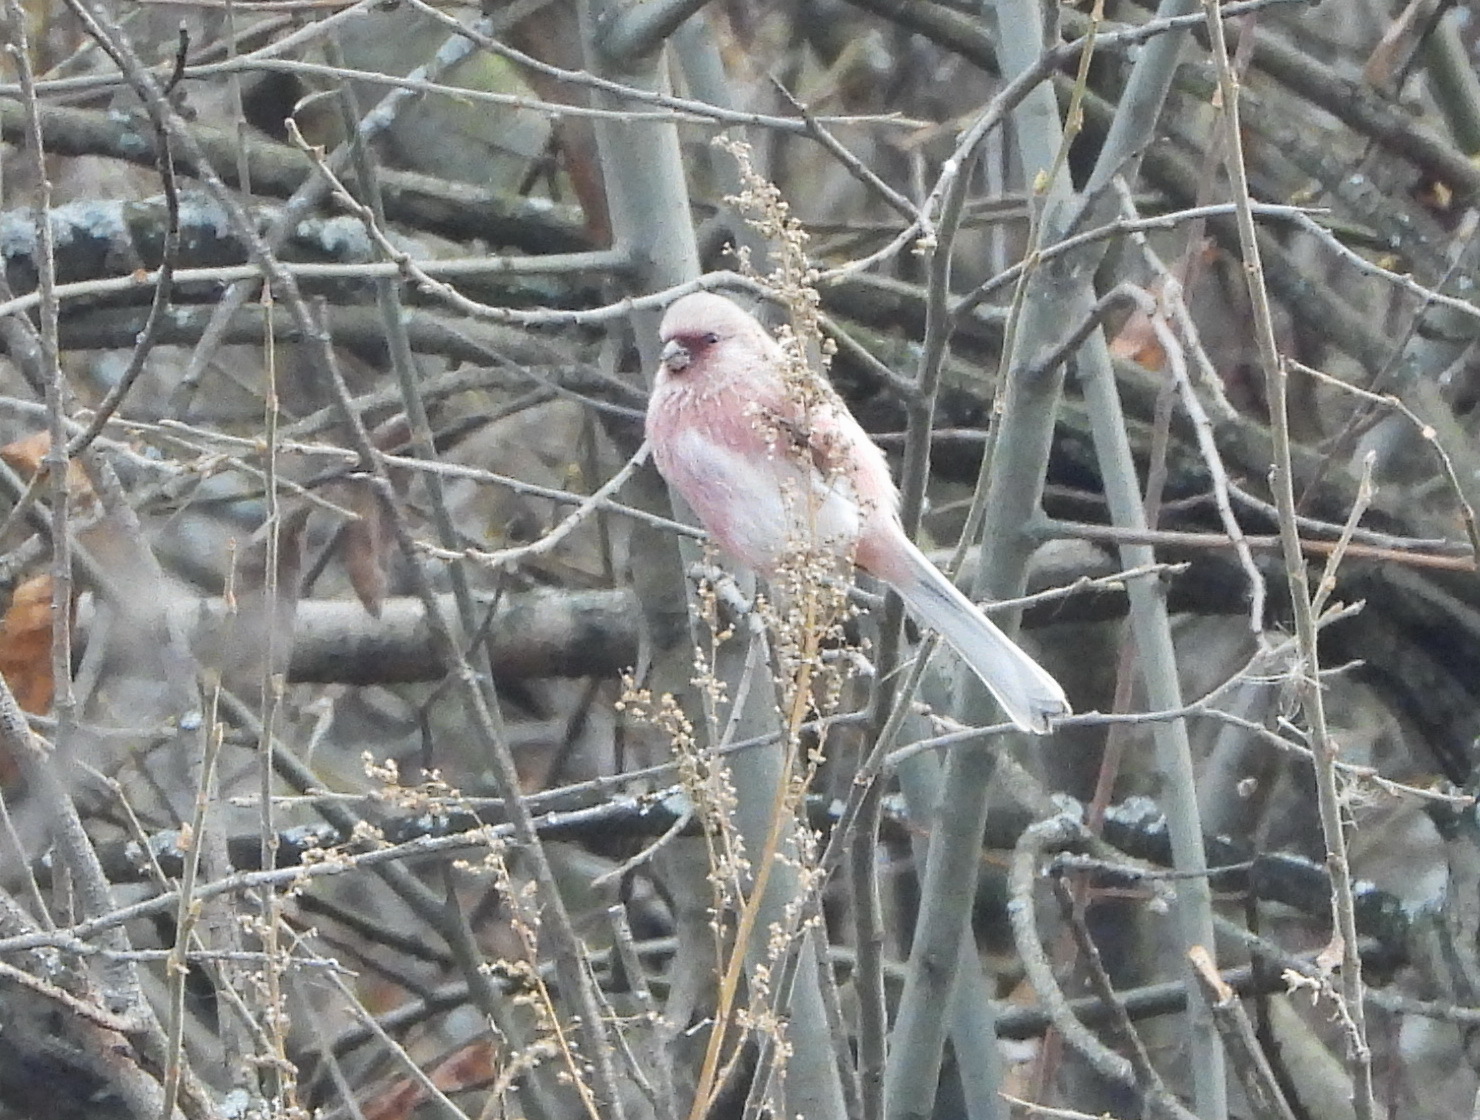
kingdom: Animalia
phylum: Chordata
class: Aves
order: Passeriformes
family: Fringillidae
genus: Carpodacus
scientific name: Carpodacus sibiricus
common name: Long-tailed rosefinch
